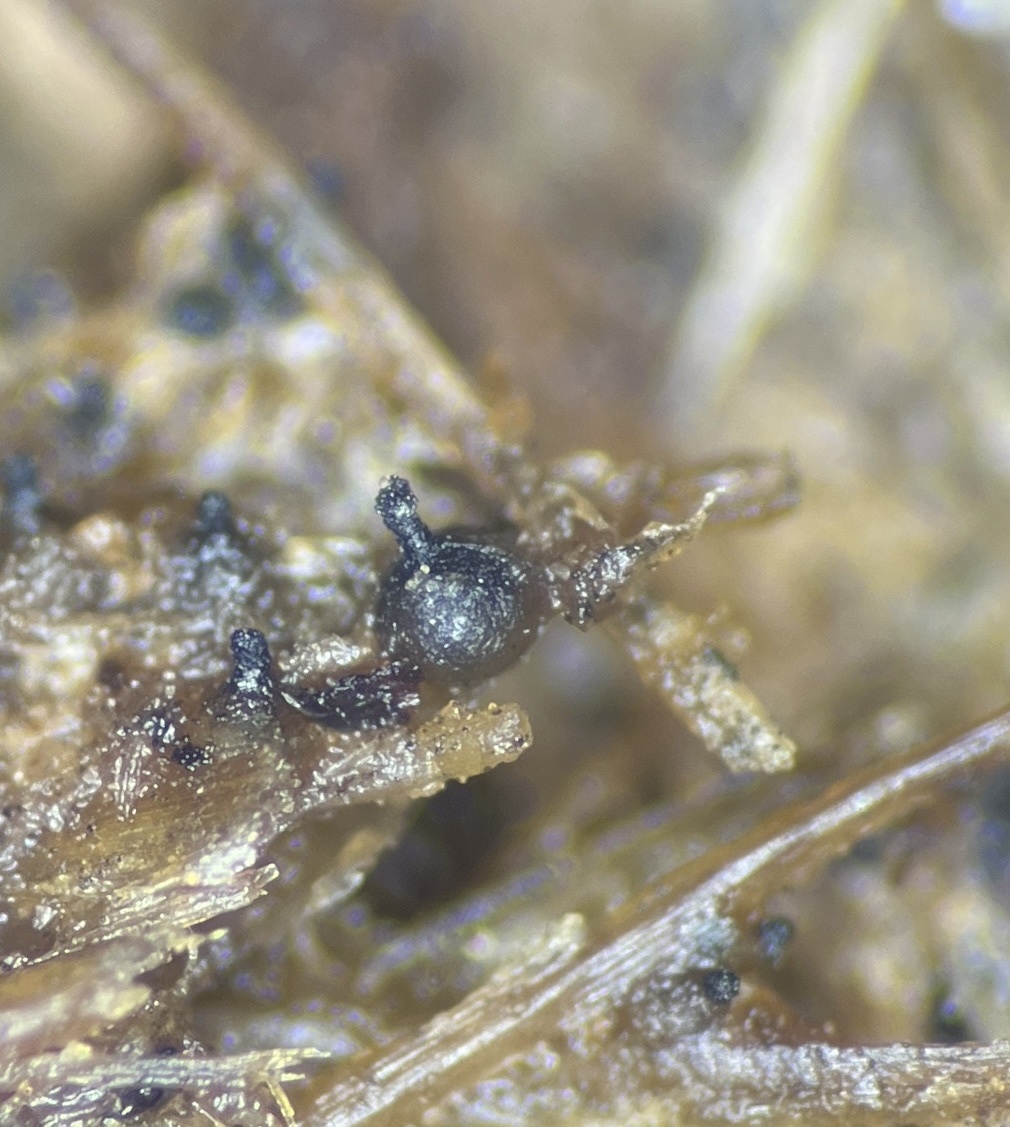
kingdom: Fungi
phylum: Ascomycota
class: Sordariomycetes
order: Sordariales
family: Neoschizotheciaceae
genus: Cercophora
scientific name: Cercophora sordarioides
